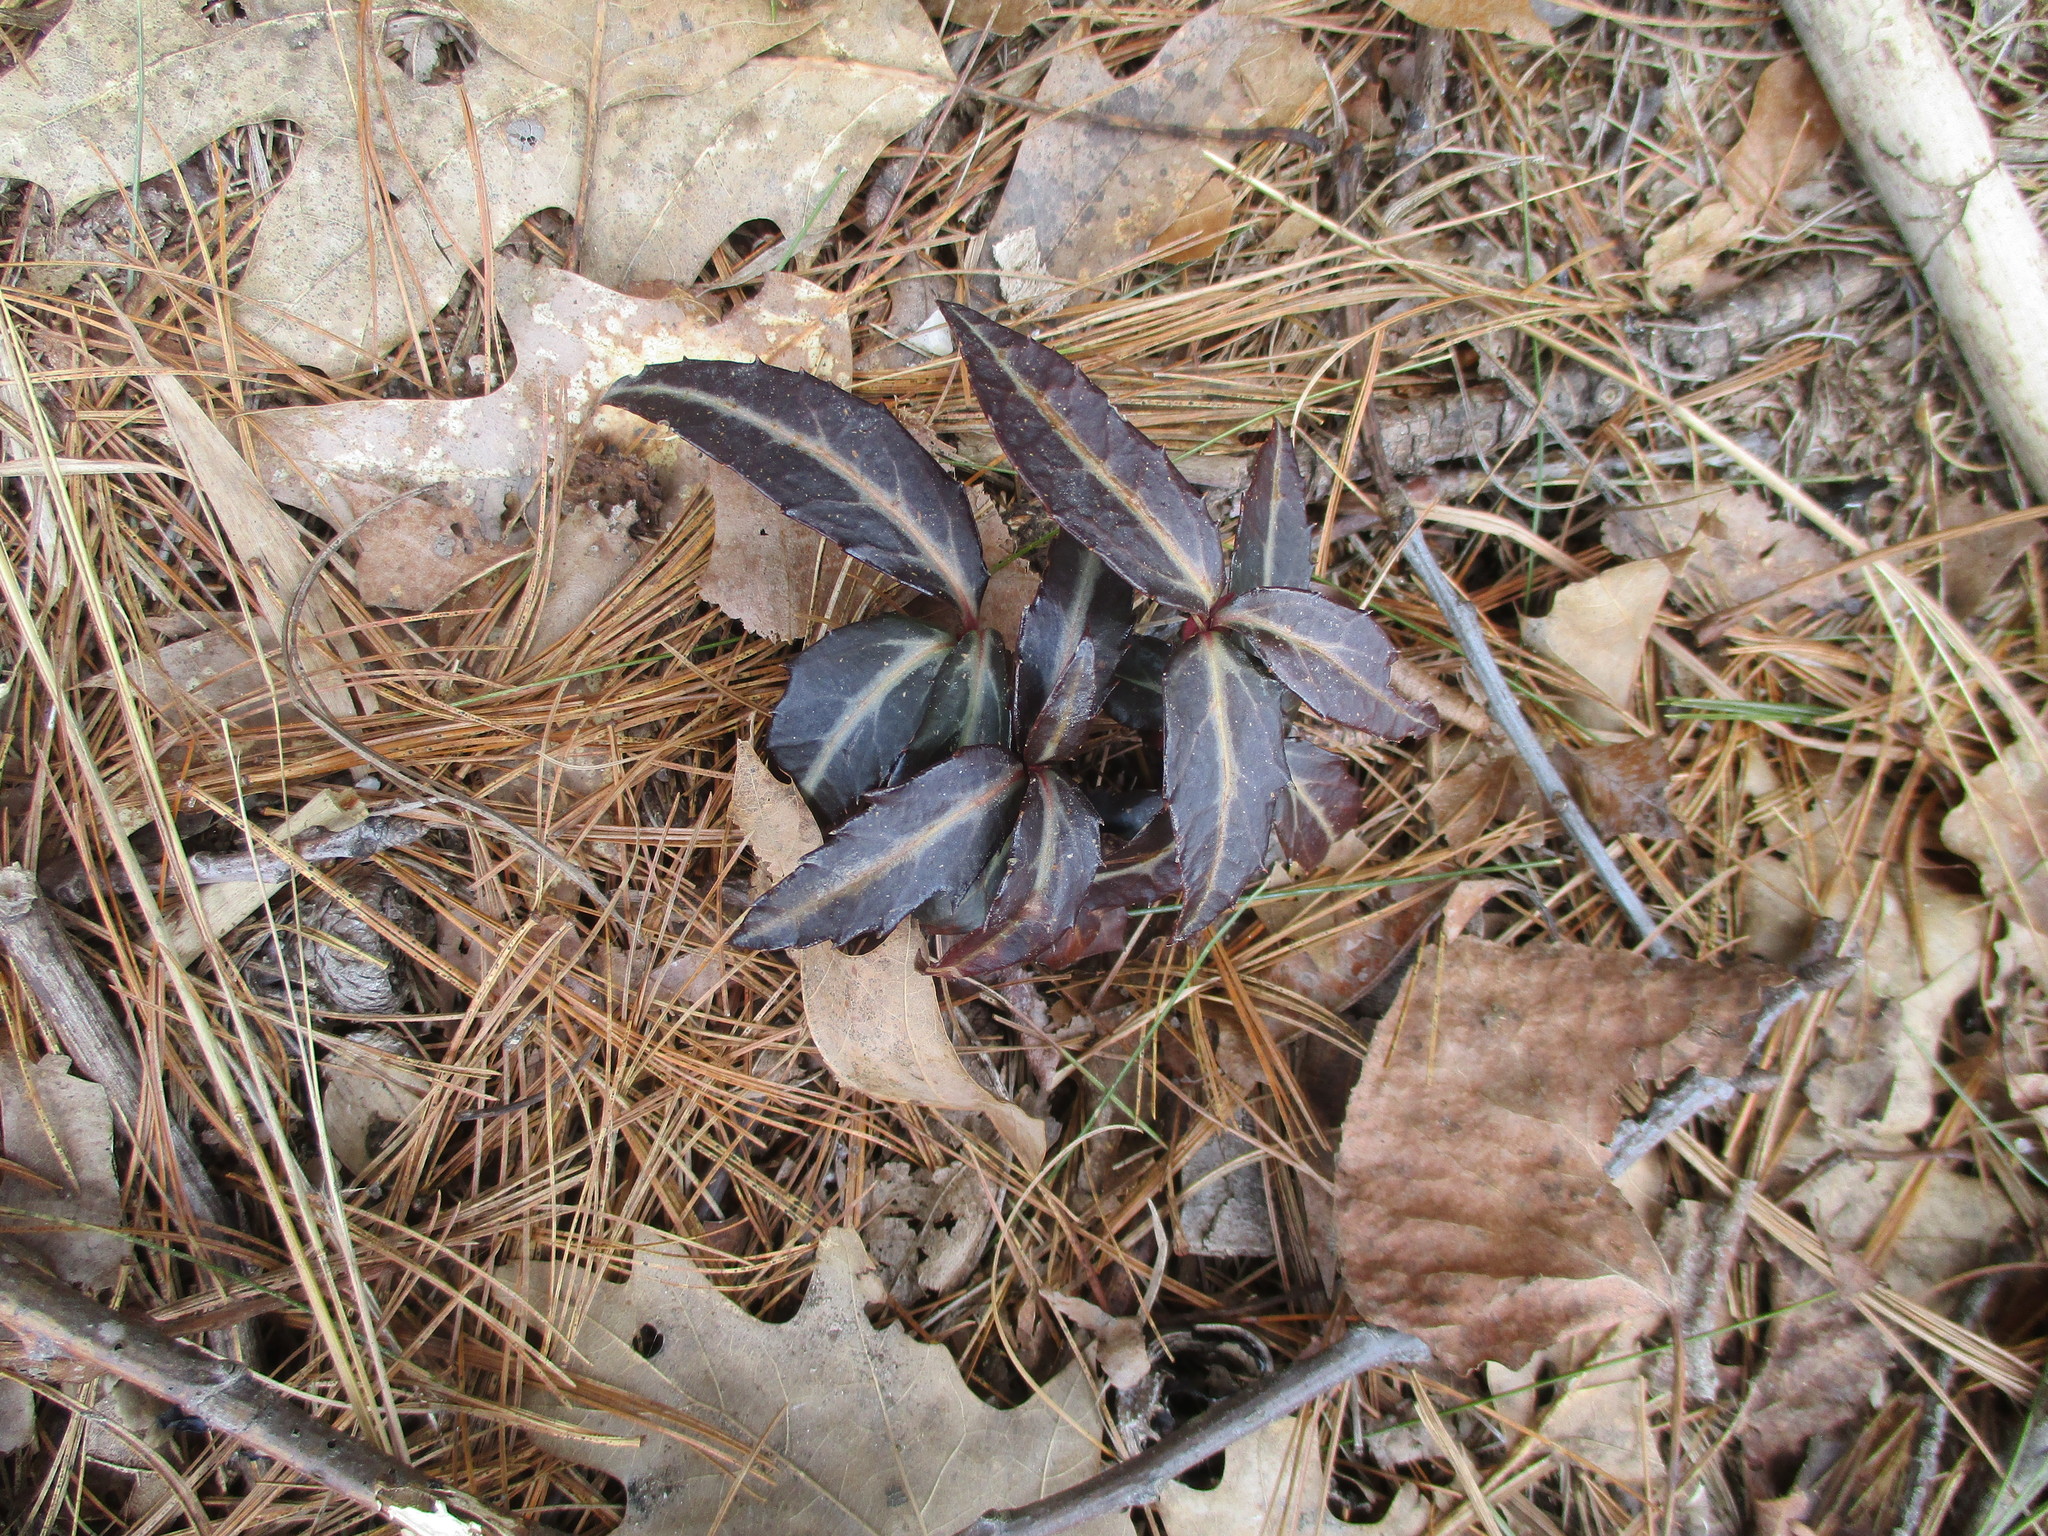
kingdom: Plantae
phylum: Tracheophyta
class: Magnoliopsida
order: Ericales
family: Ericaceae
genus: Chimaphila
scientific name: Chimaphila maculata
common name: Spotted pipsissewa
